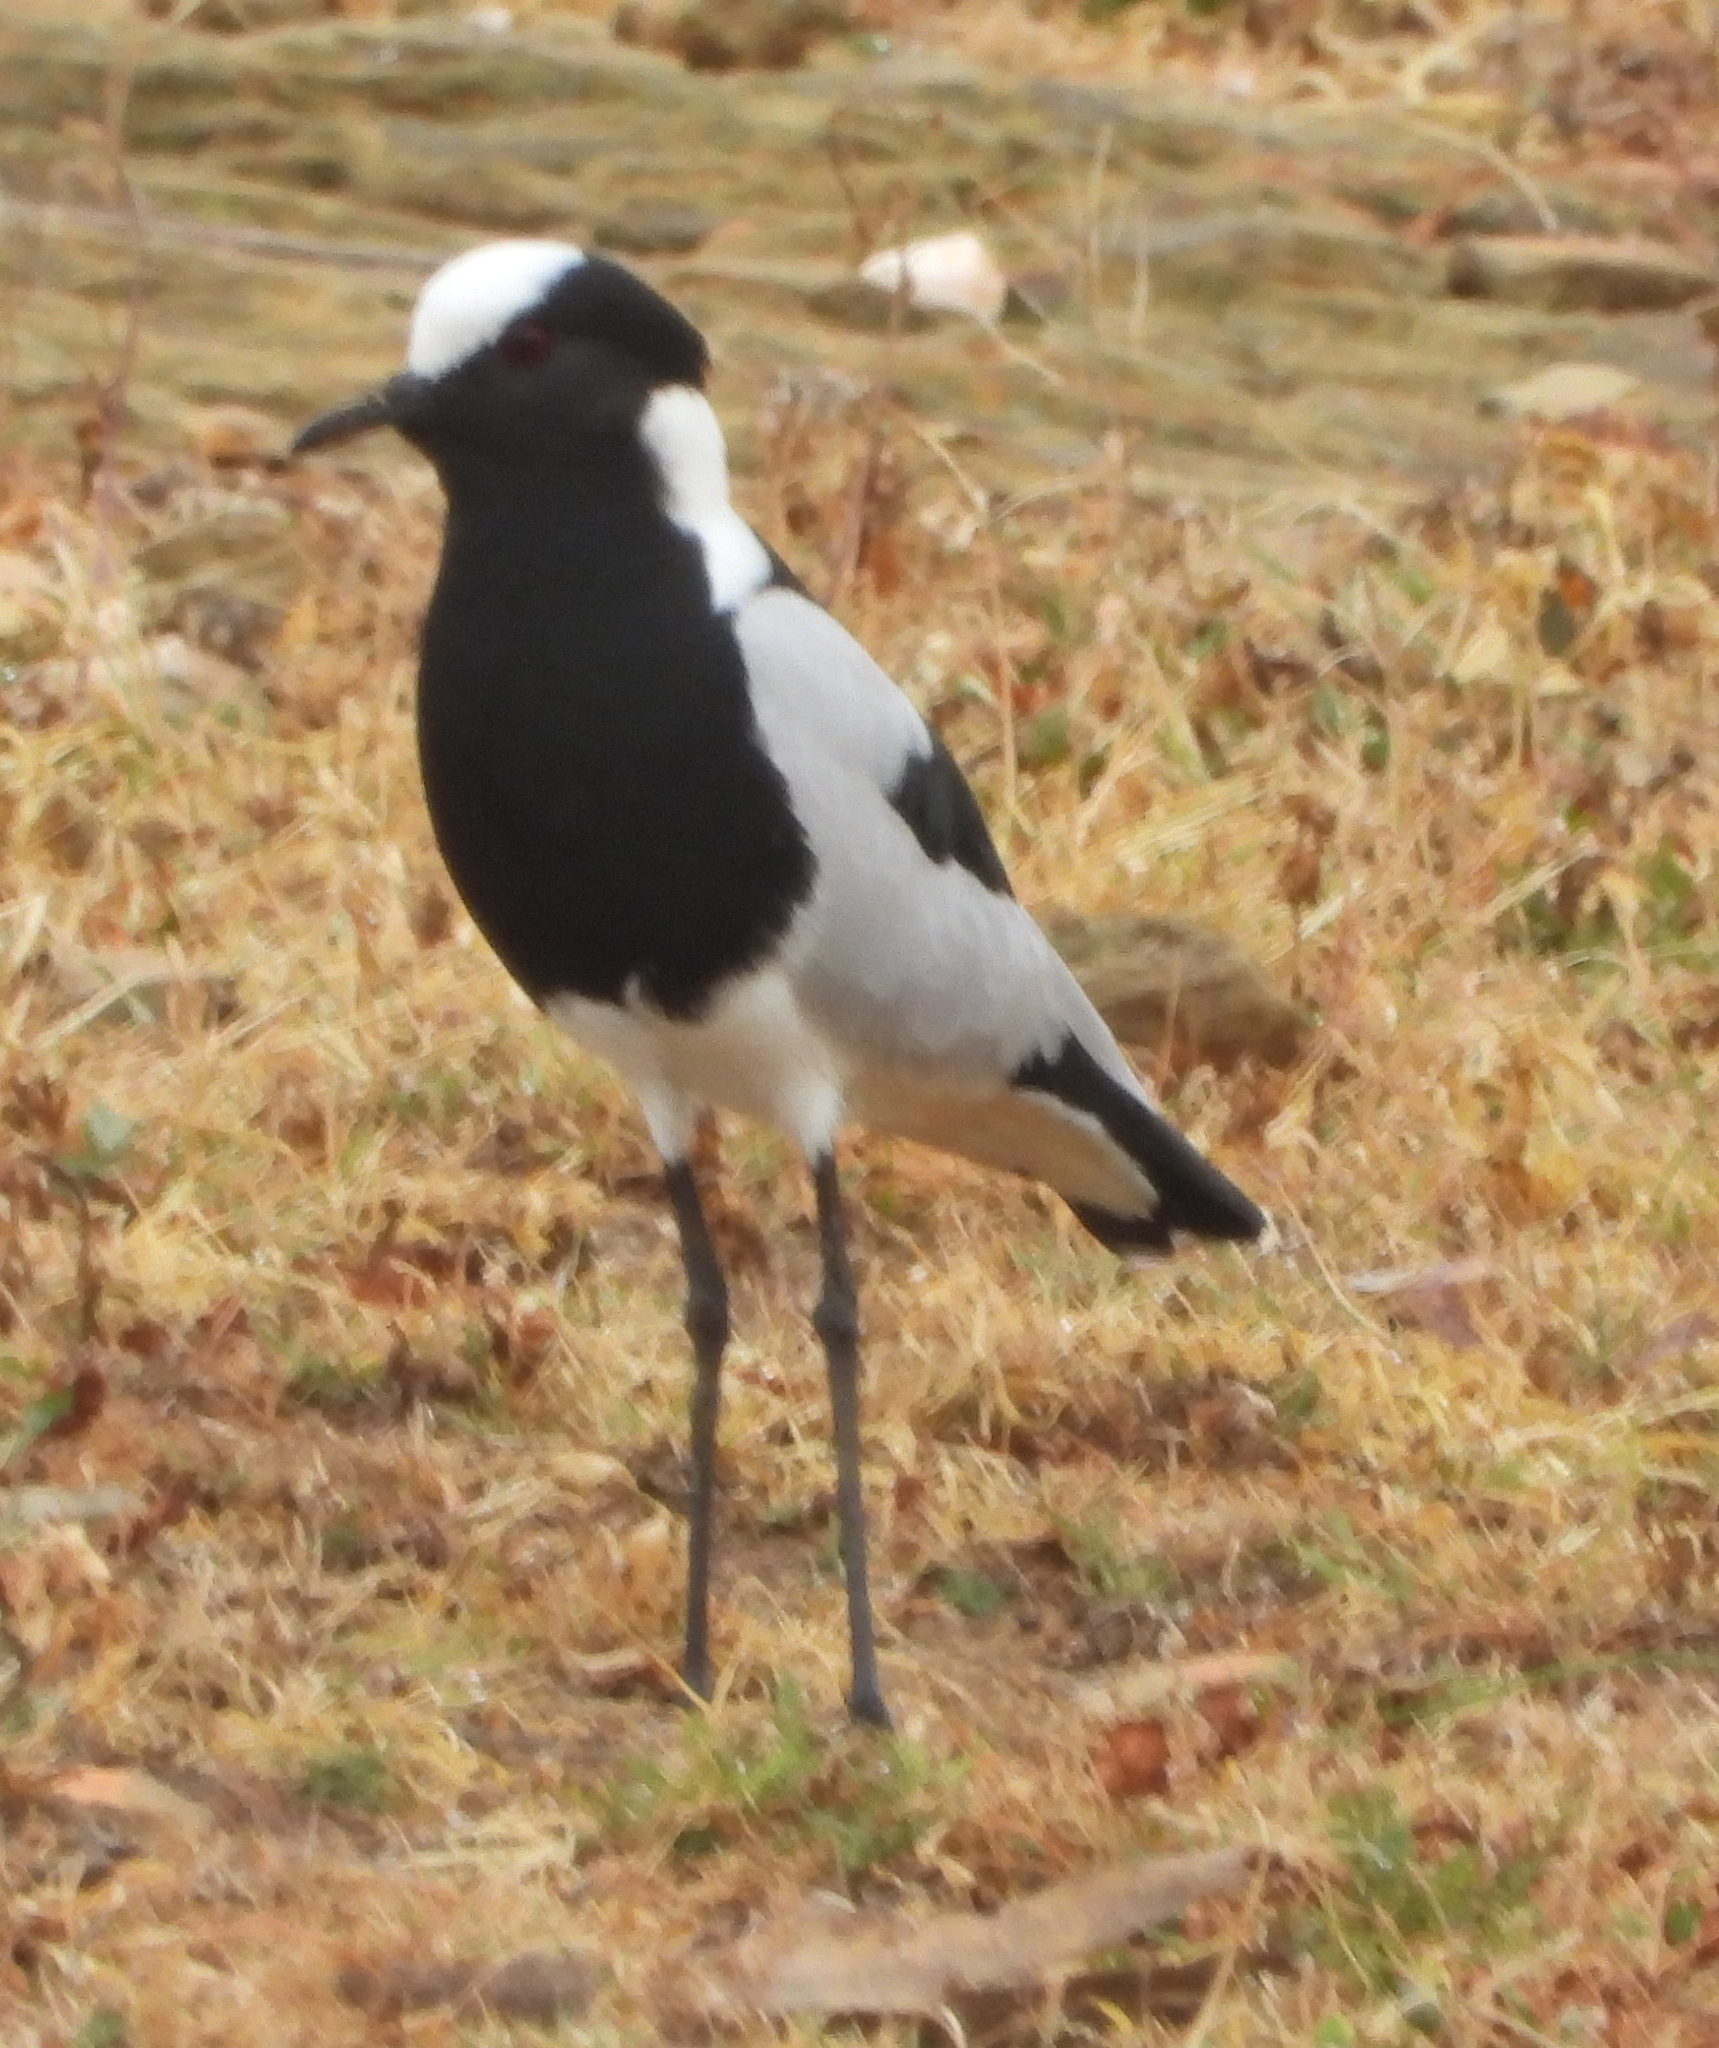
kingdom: Animalia
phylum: Chordata
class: Aves
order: Charadriiformes
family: Charadriidae
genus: Vanellus
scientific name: Vanellus armatus
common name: Blacksmith lapwing
